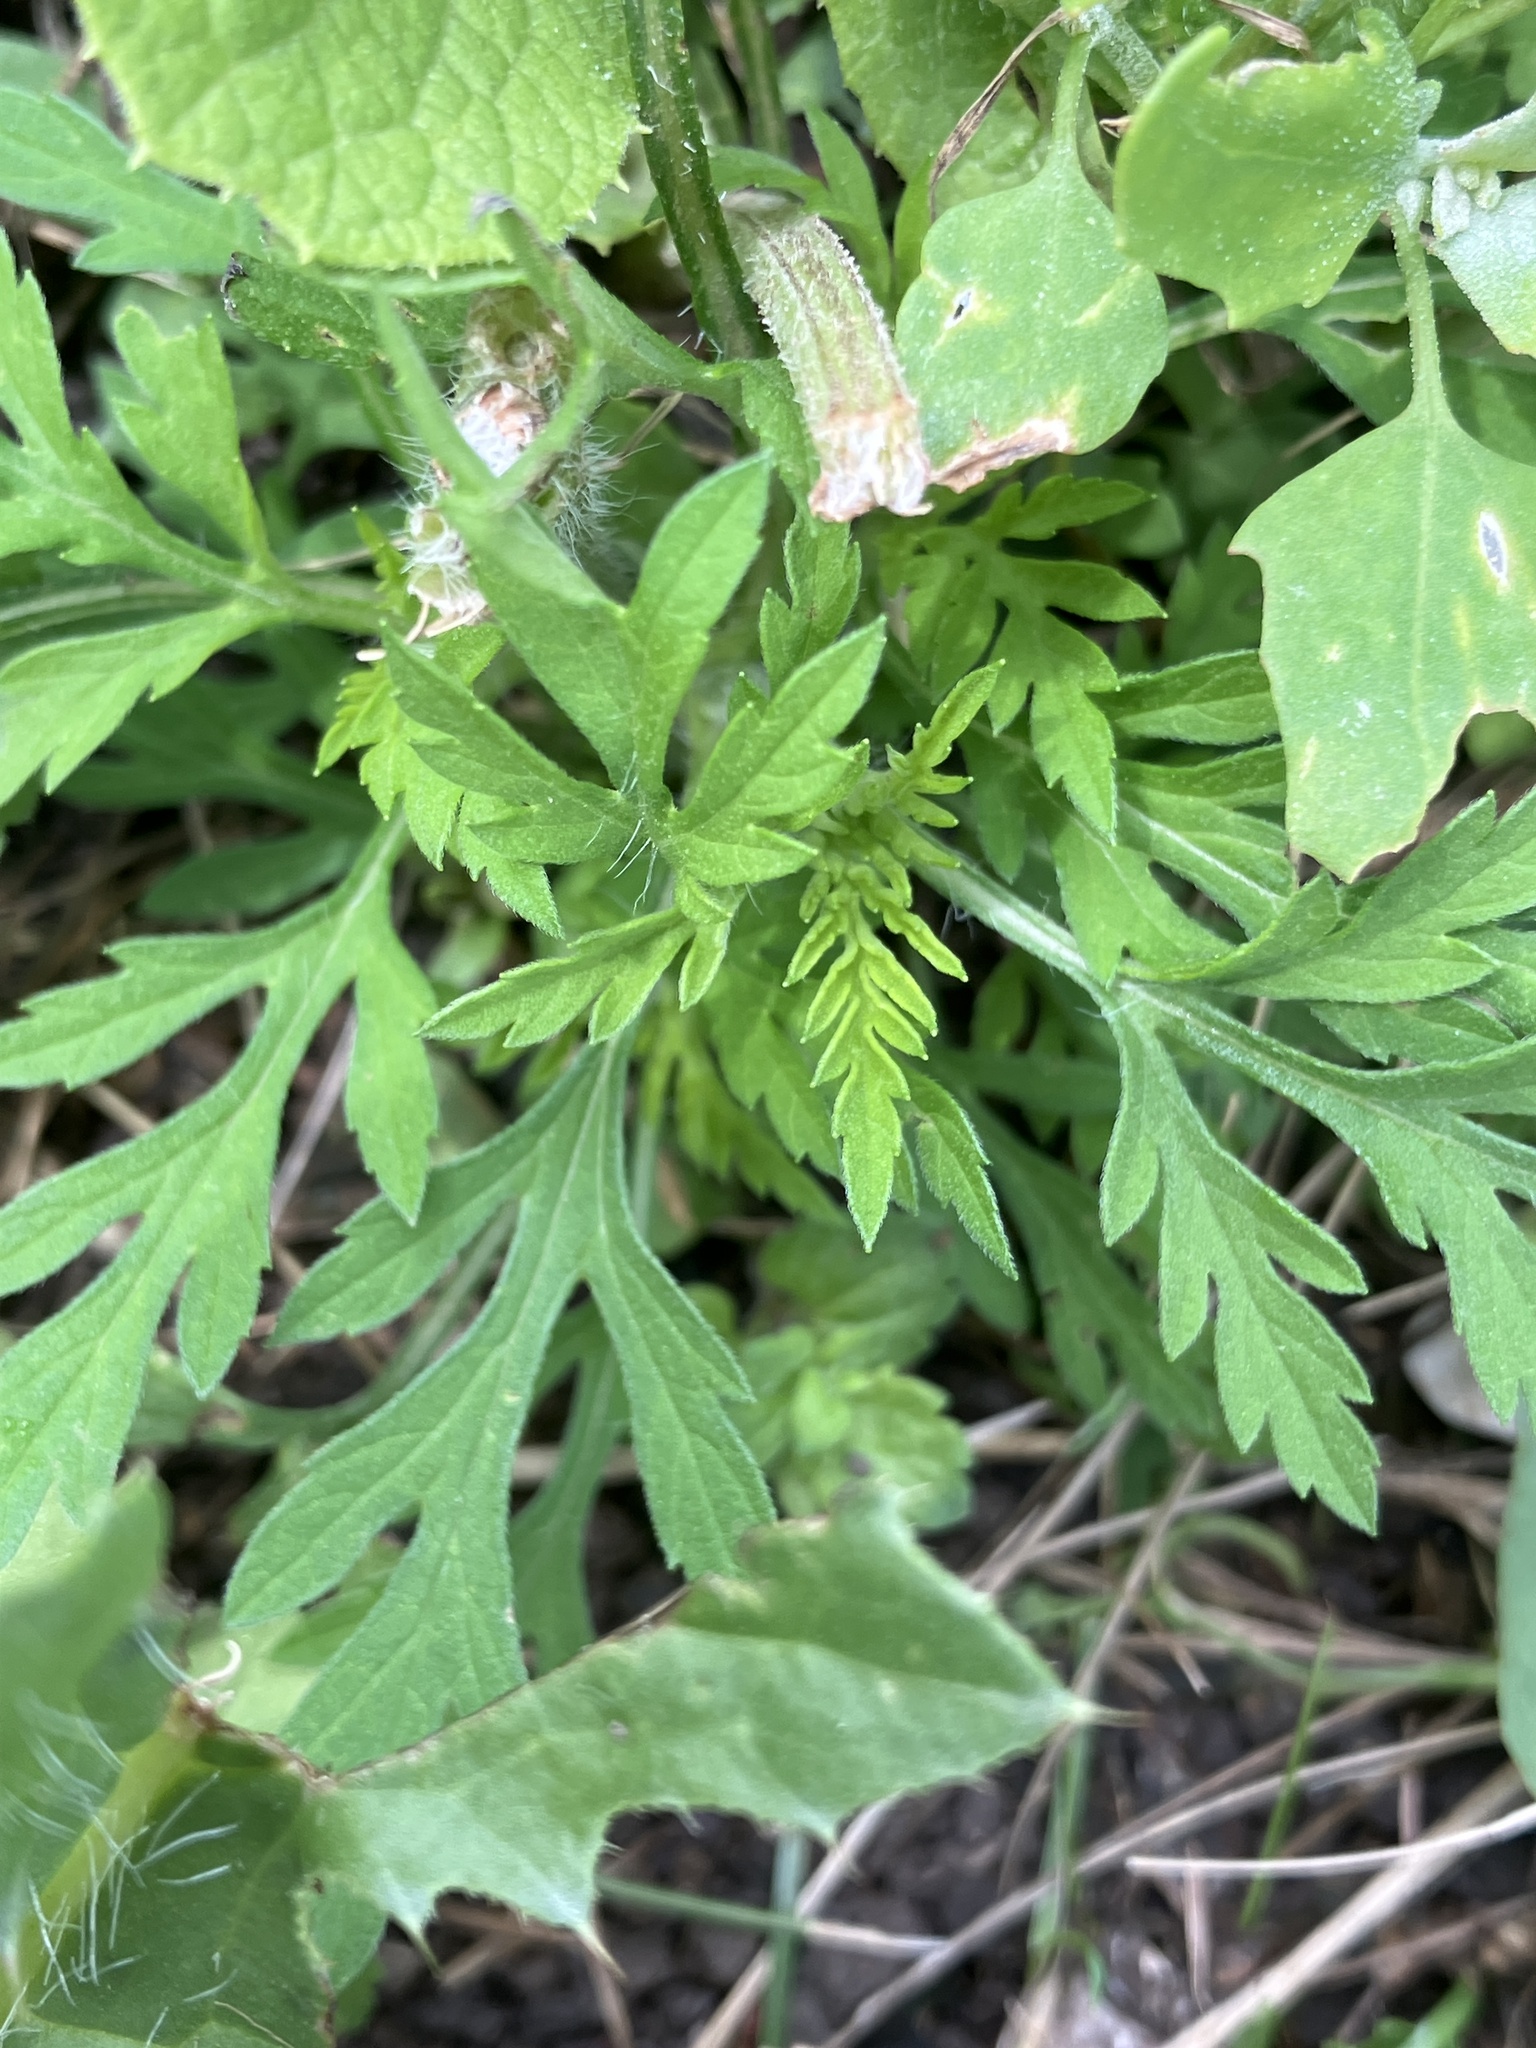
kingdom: Plantae
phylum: Tracheophyta
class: Magnoliopsida
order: Asterales
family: Asteraceae
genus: Ambrosia
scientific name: Ambrosia artemisiifolia
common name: Annual ragweed
